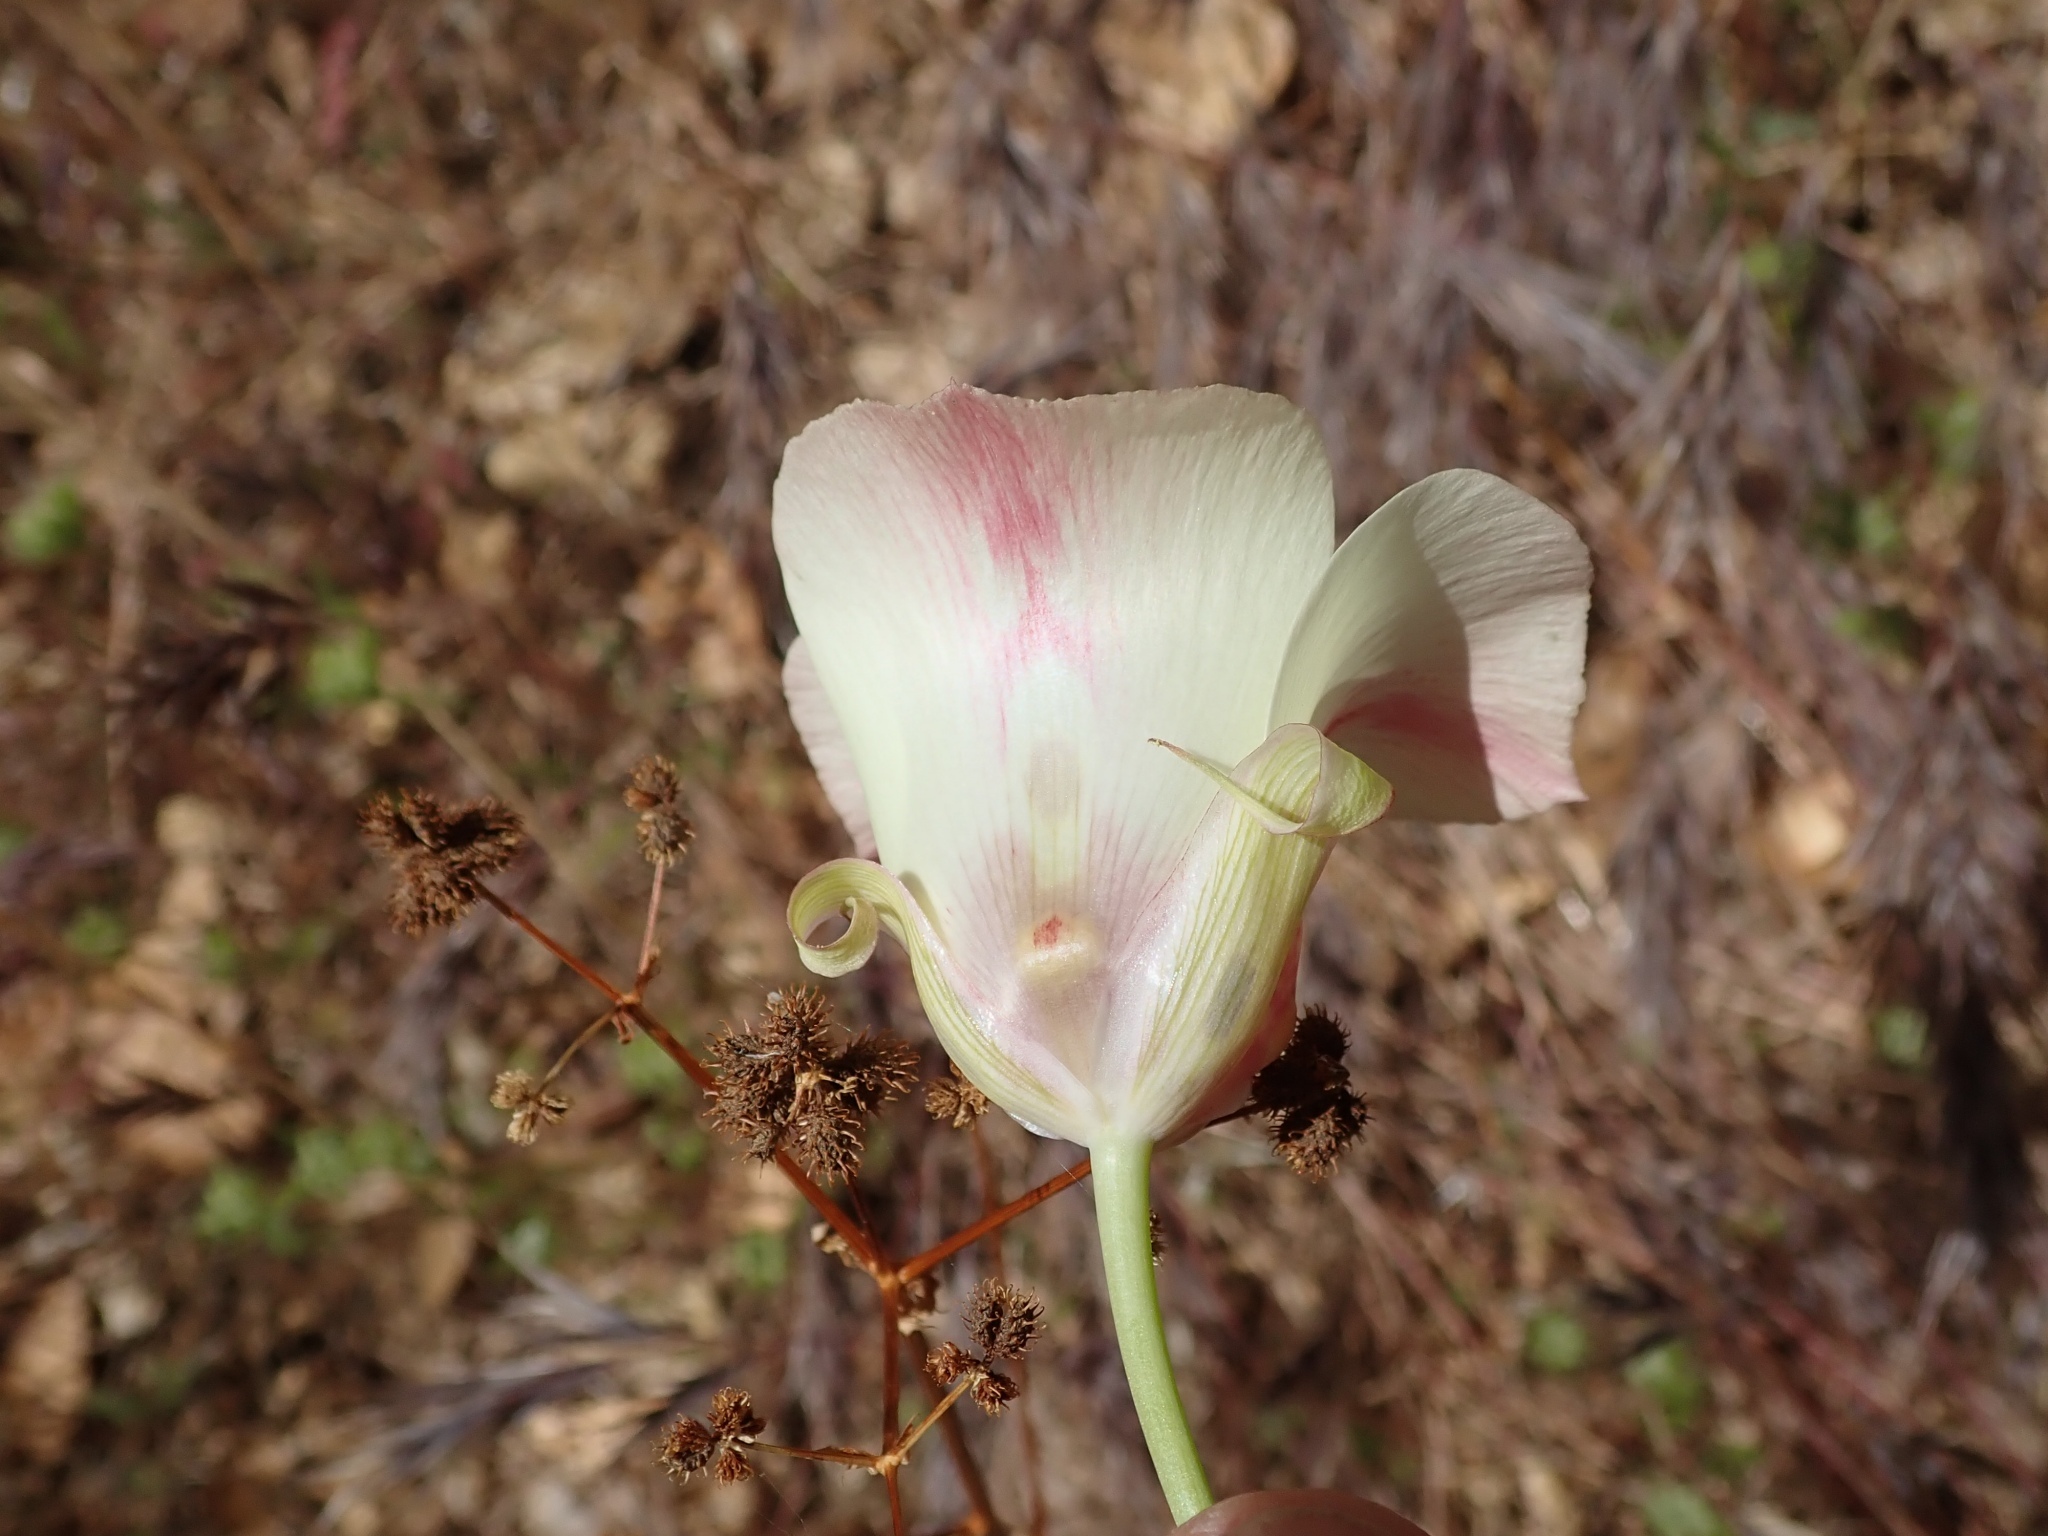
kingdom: Plantae
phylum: Tracheophyta
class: Liliopsida
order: Liliales
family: Liliaceae
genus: Calochortus
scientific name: Calochortus venustus
